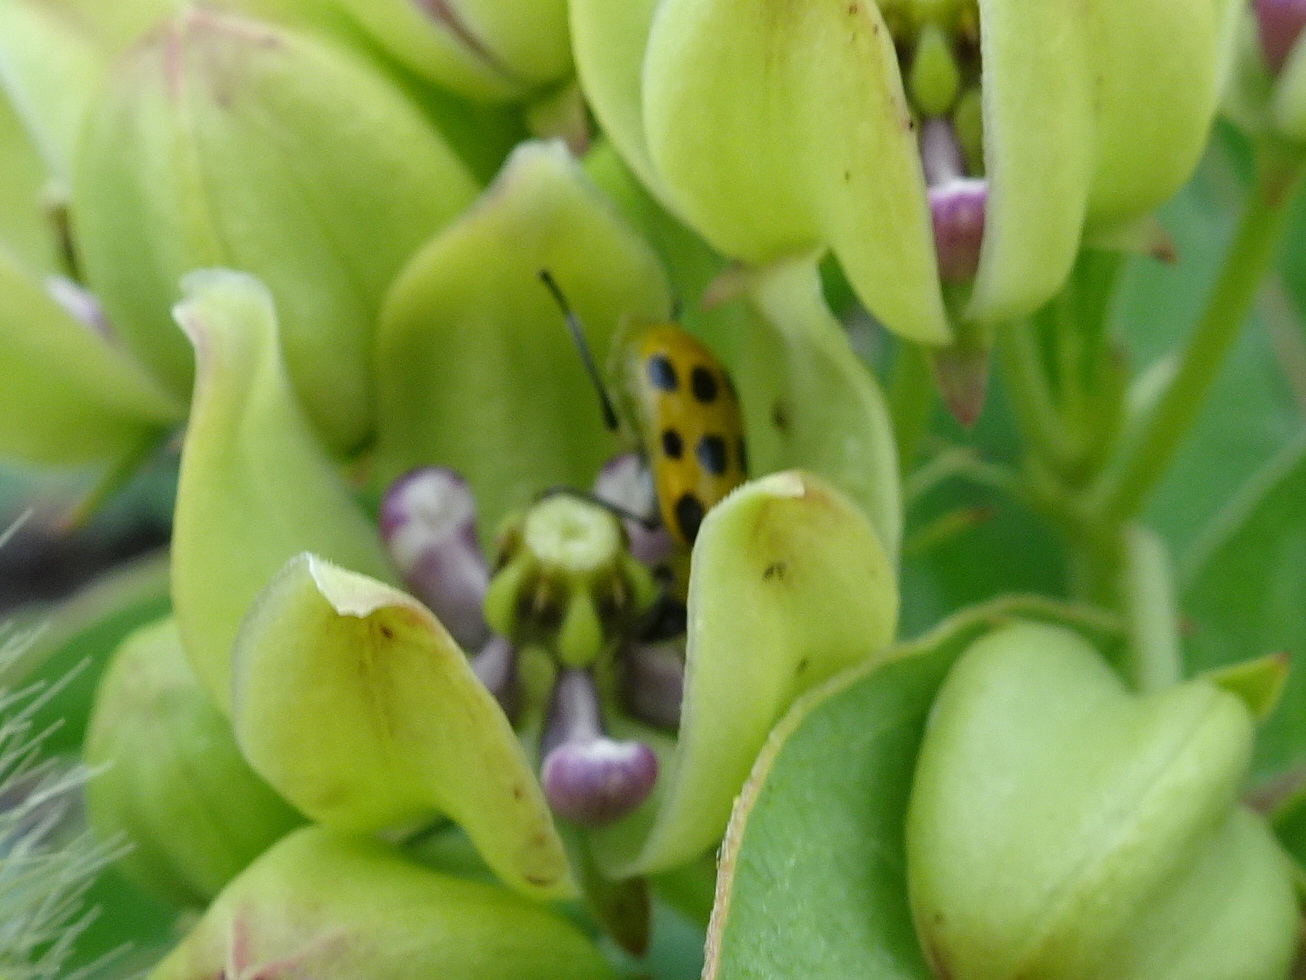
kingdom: Animalia
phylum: Arthropoda
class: Insecta
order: Coleoptera
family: Chrysomelidae
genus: Diabrotica
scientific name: Diabrotica undecimpunctata
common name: Spotted cucumber beetle
